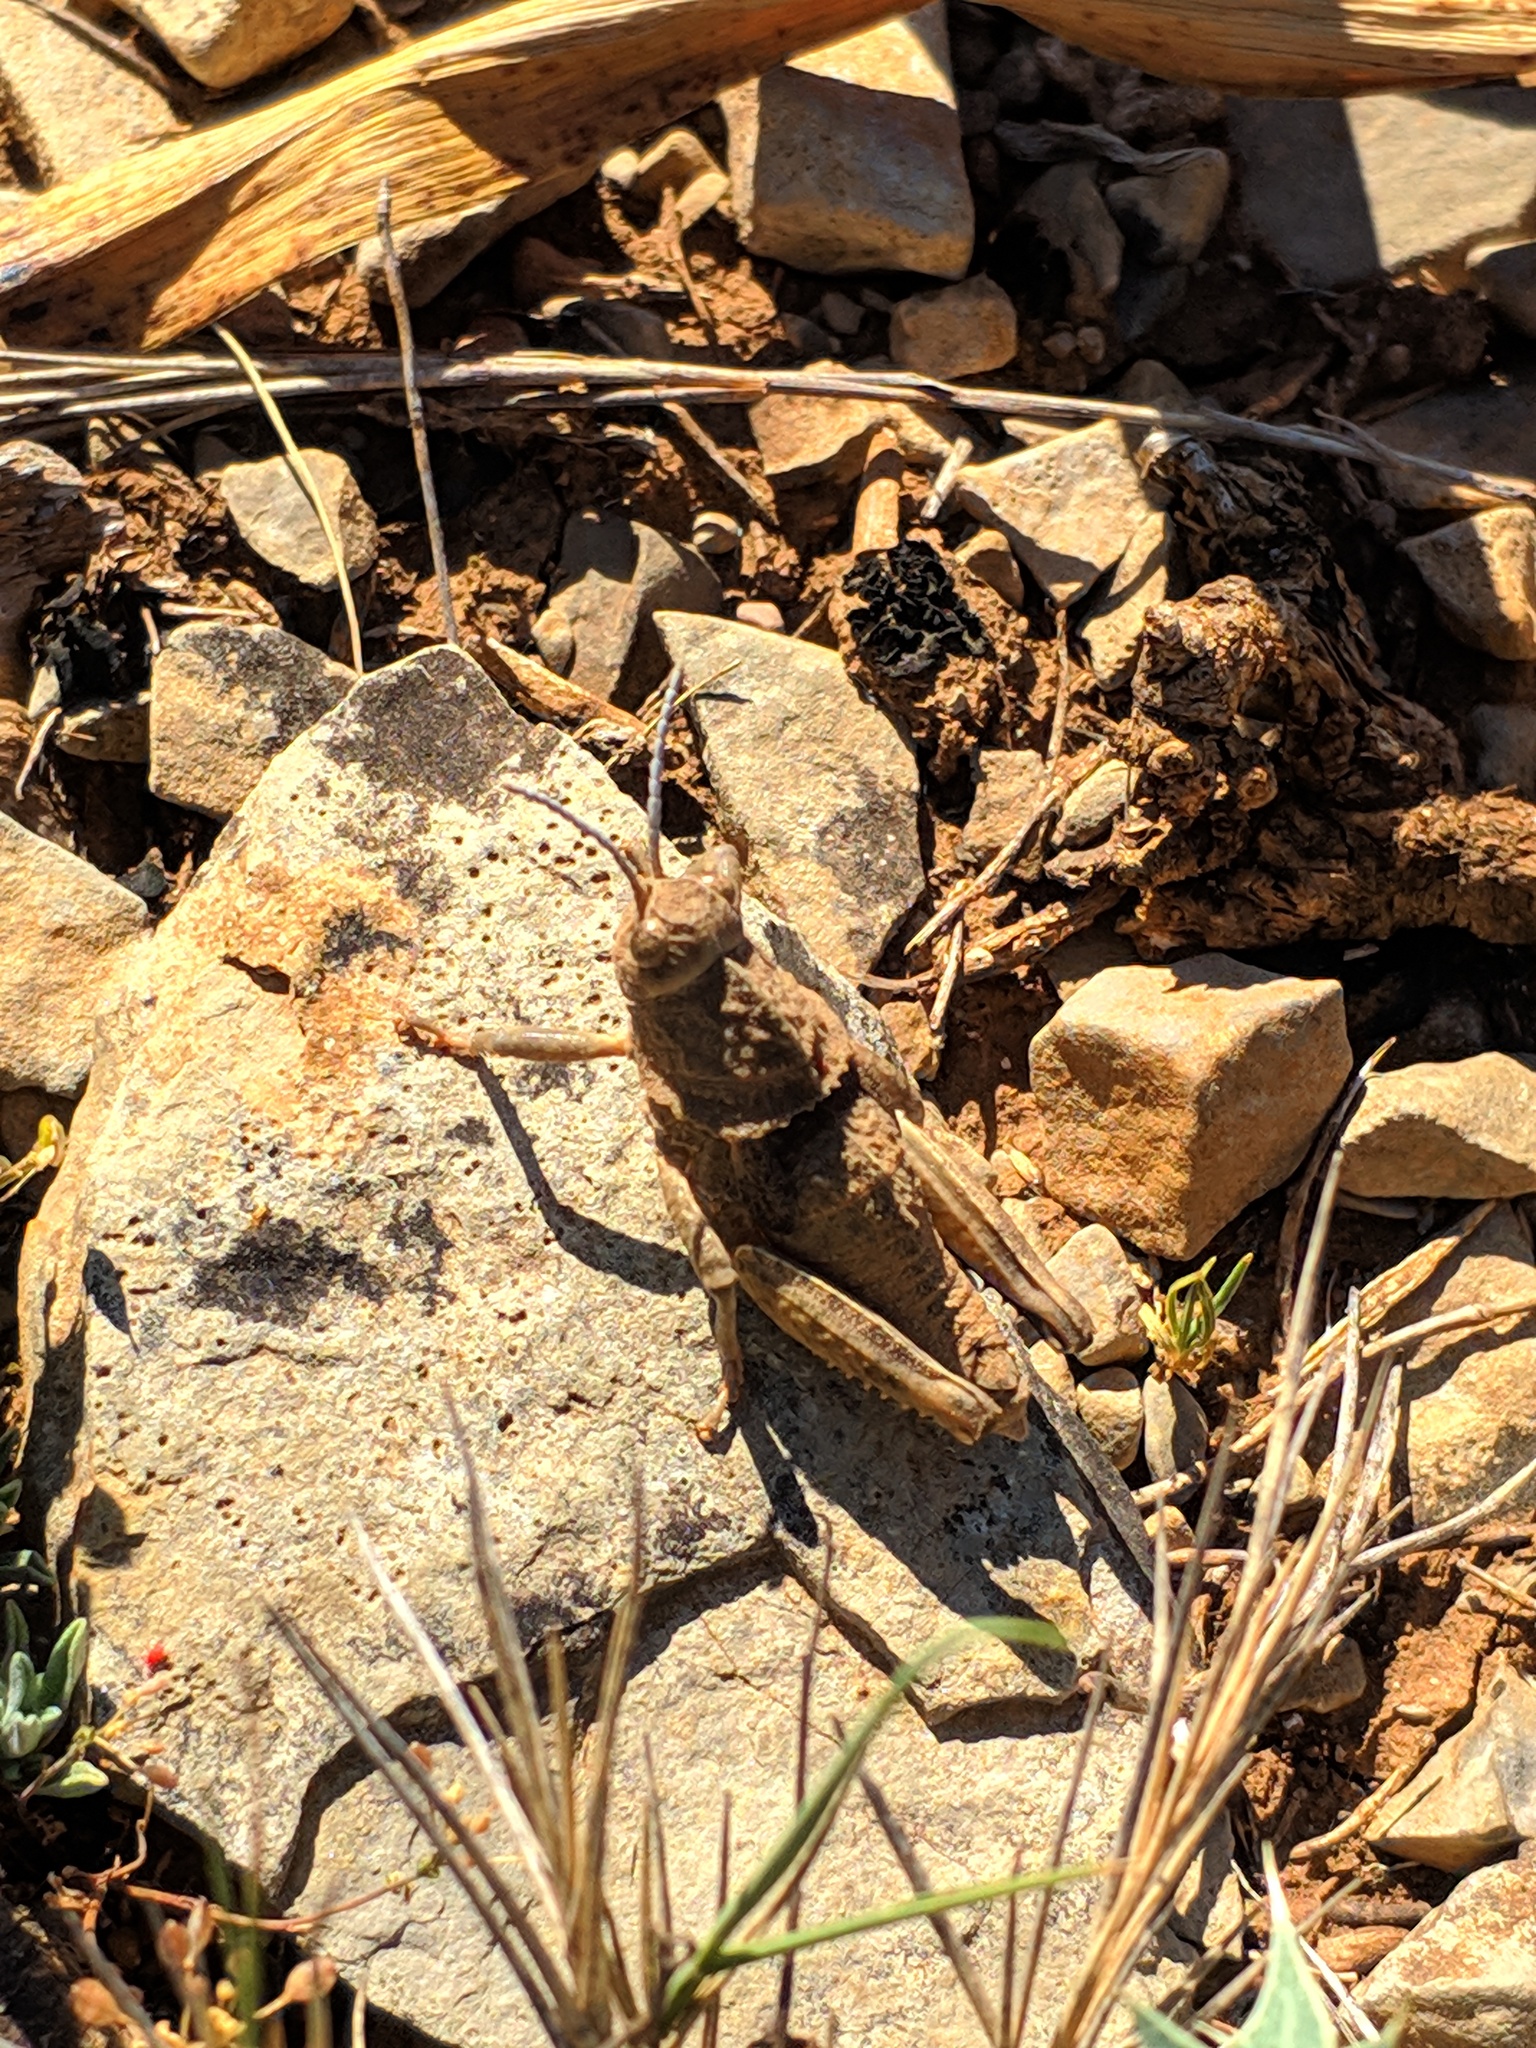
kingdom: Animalia
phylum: Arthropoda
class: Insecta
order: Orthoptera
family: Pamphagidae
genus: Ocnerodes
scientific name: Ocnerodes brunnerii
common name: Brunner's stone grasshopper
